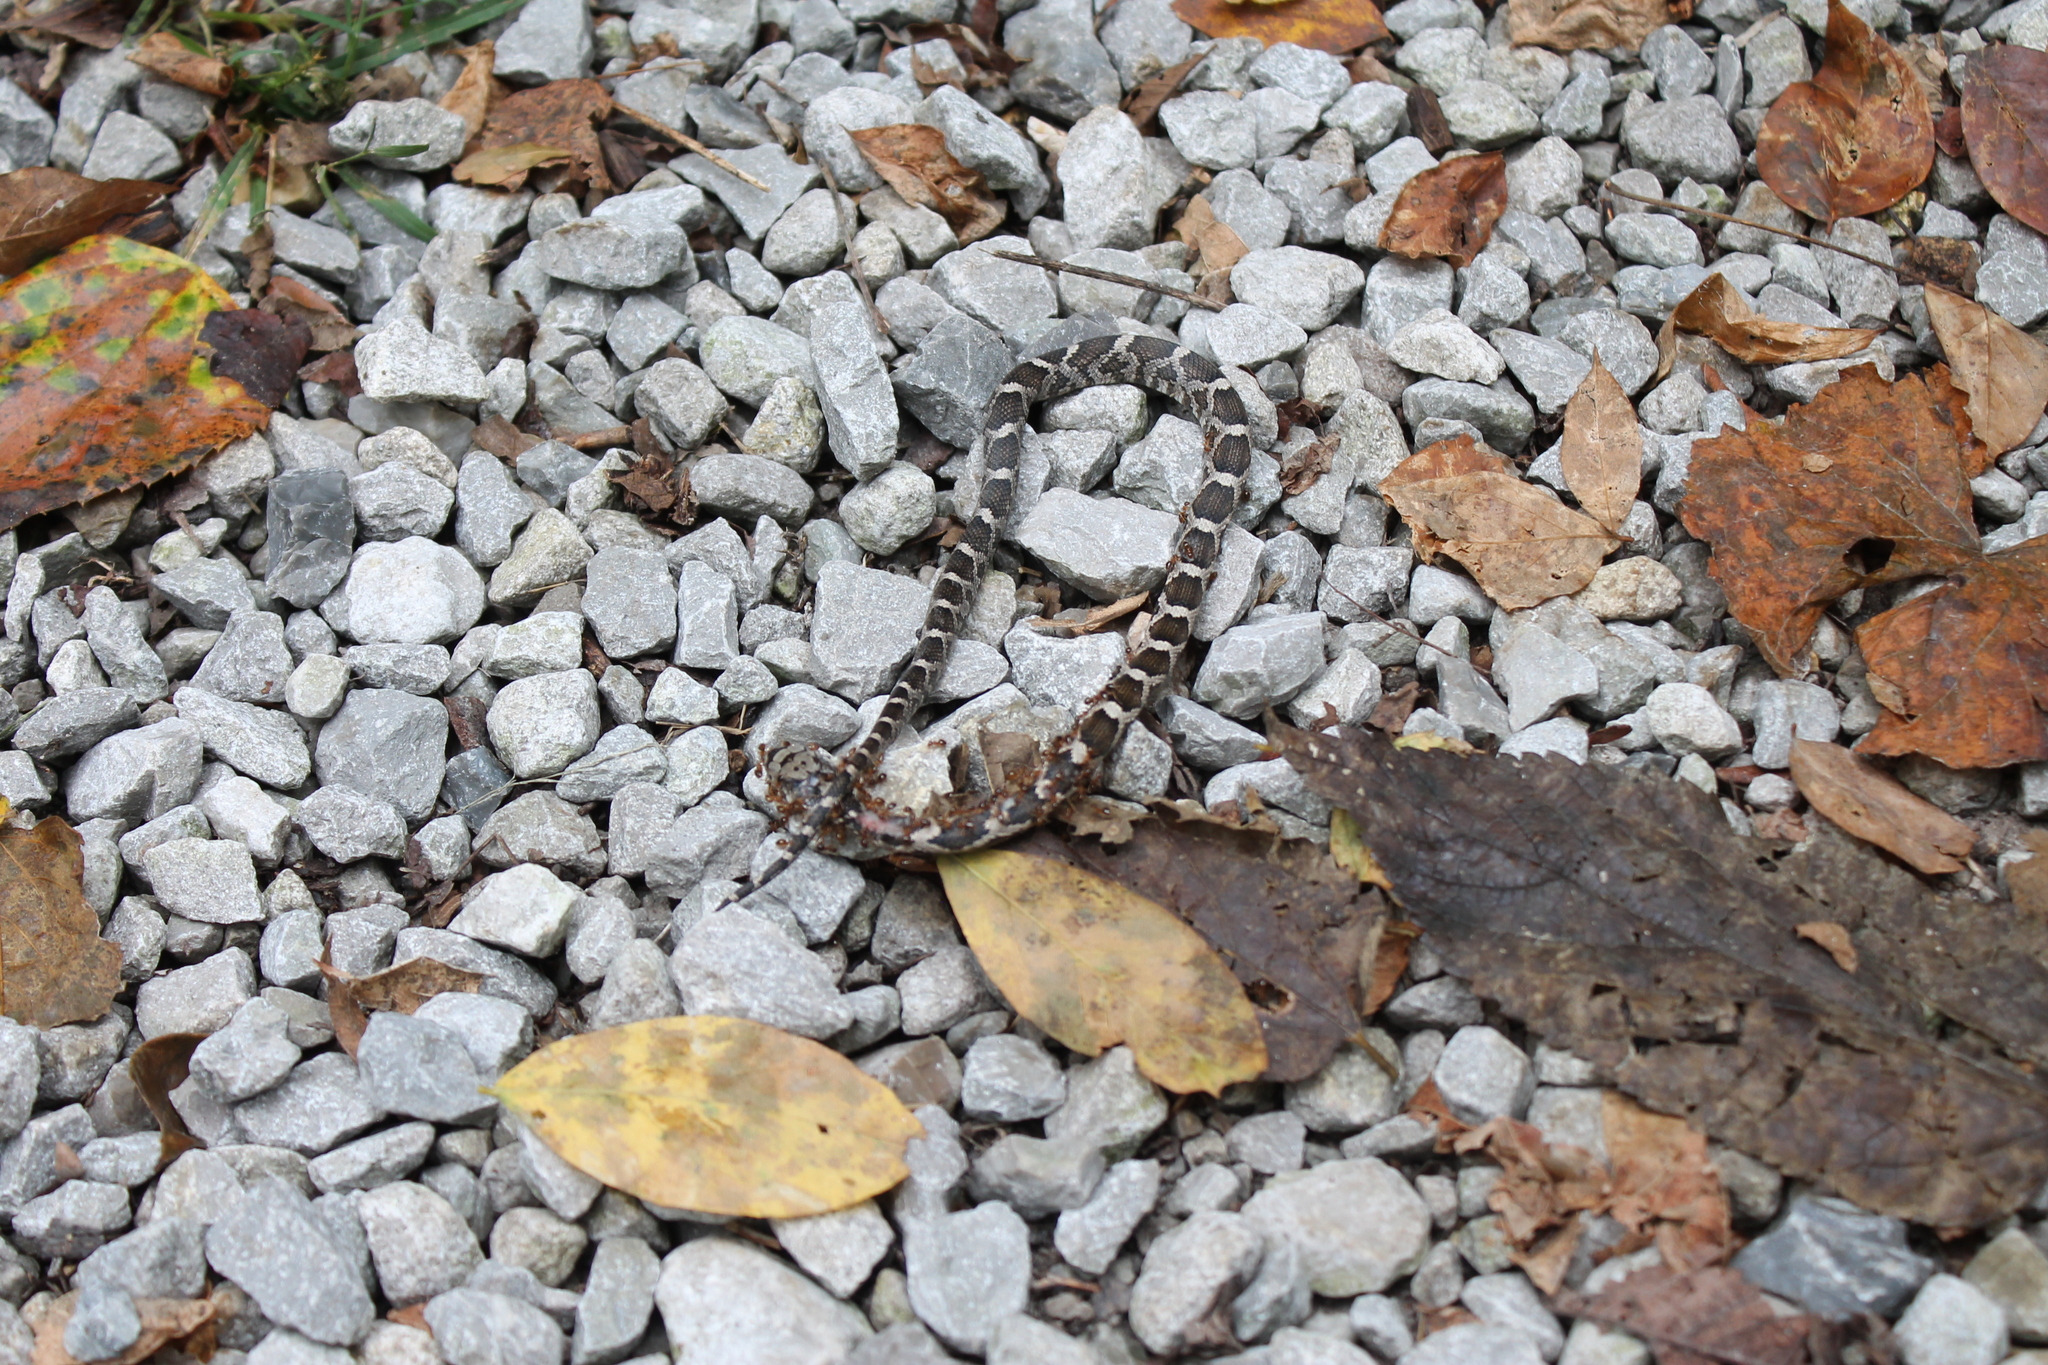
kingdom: Animalia
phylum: Chordata
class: Squamata
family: Colubridae
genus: Pantherophis
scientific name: Pantherophis spiloides
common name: Gray rat snake
